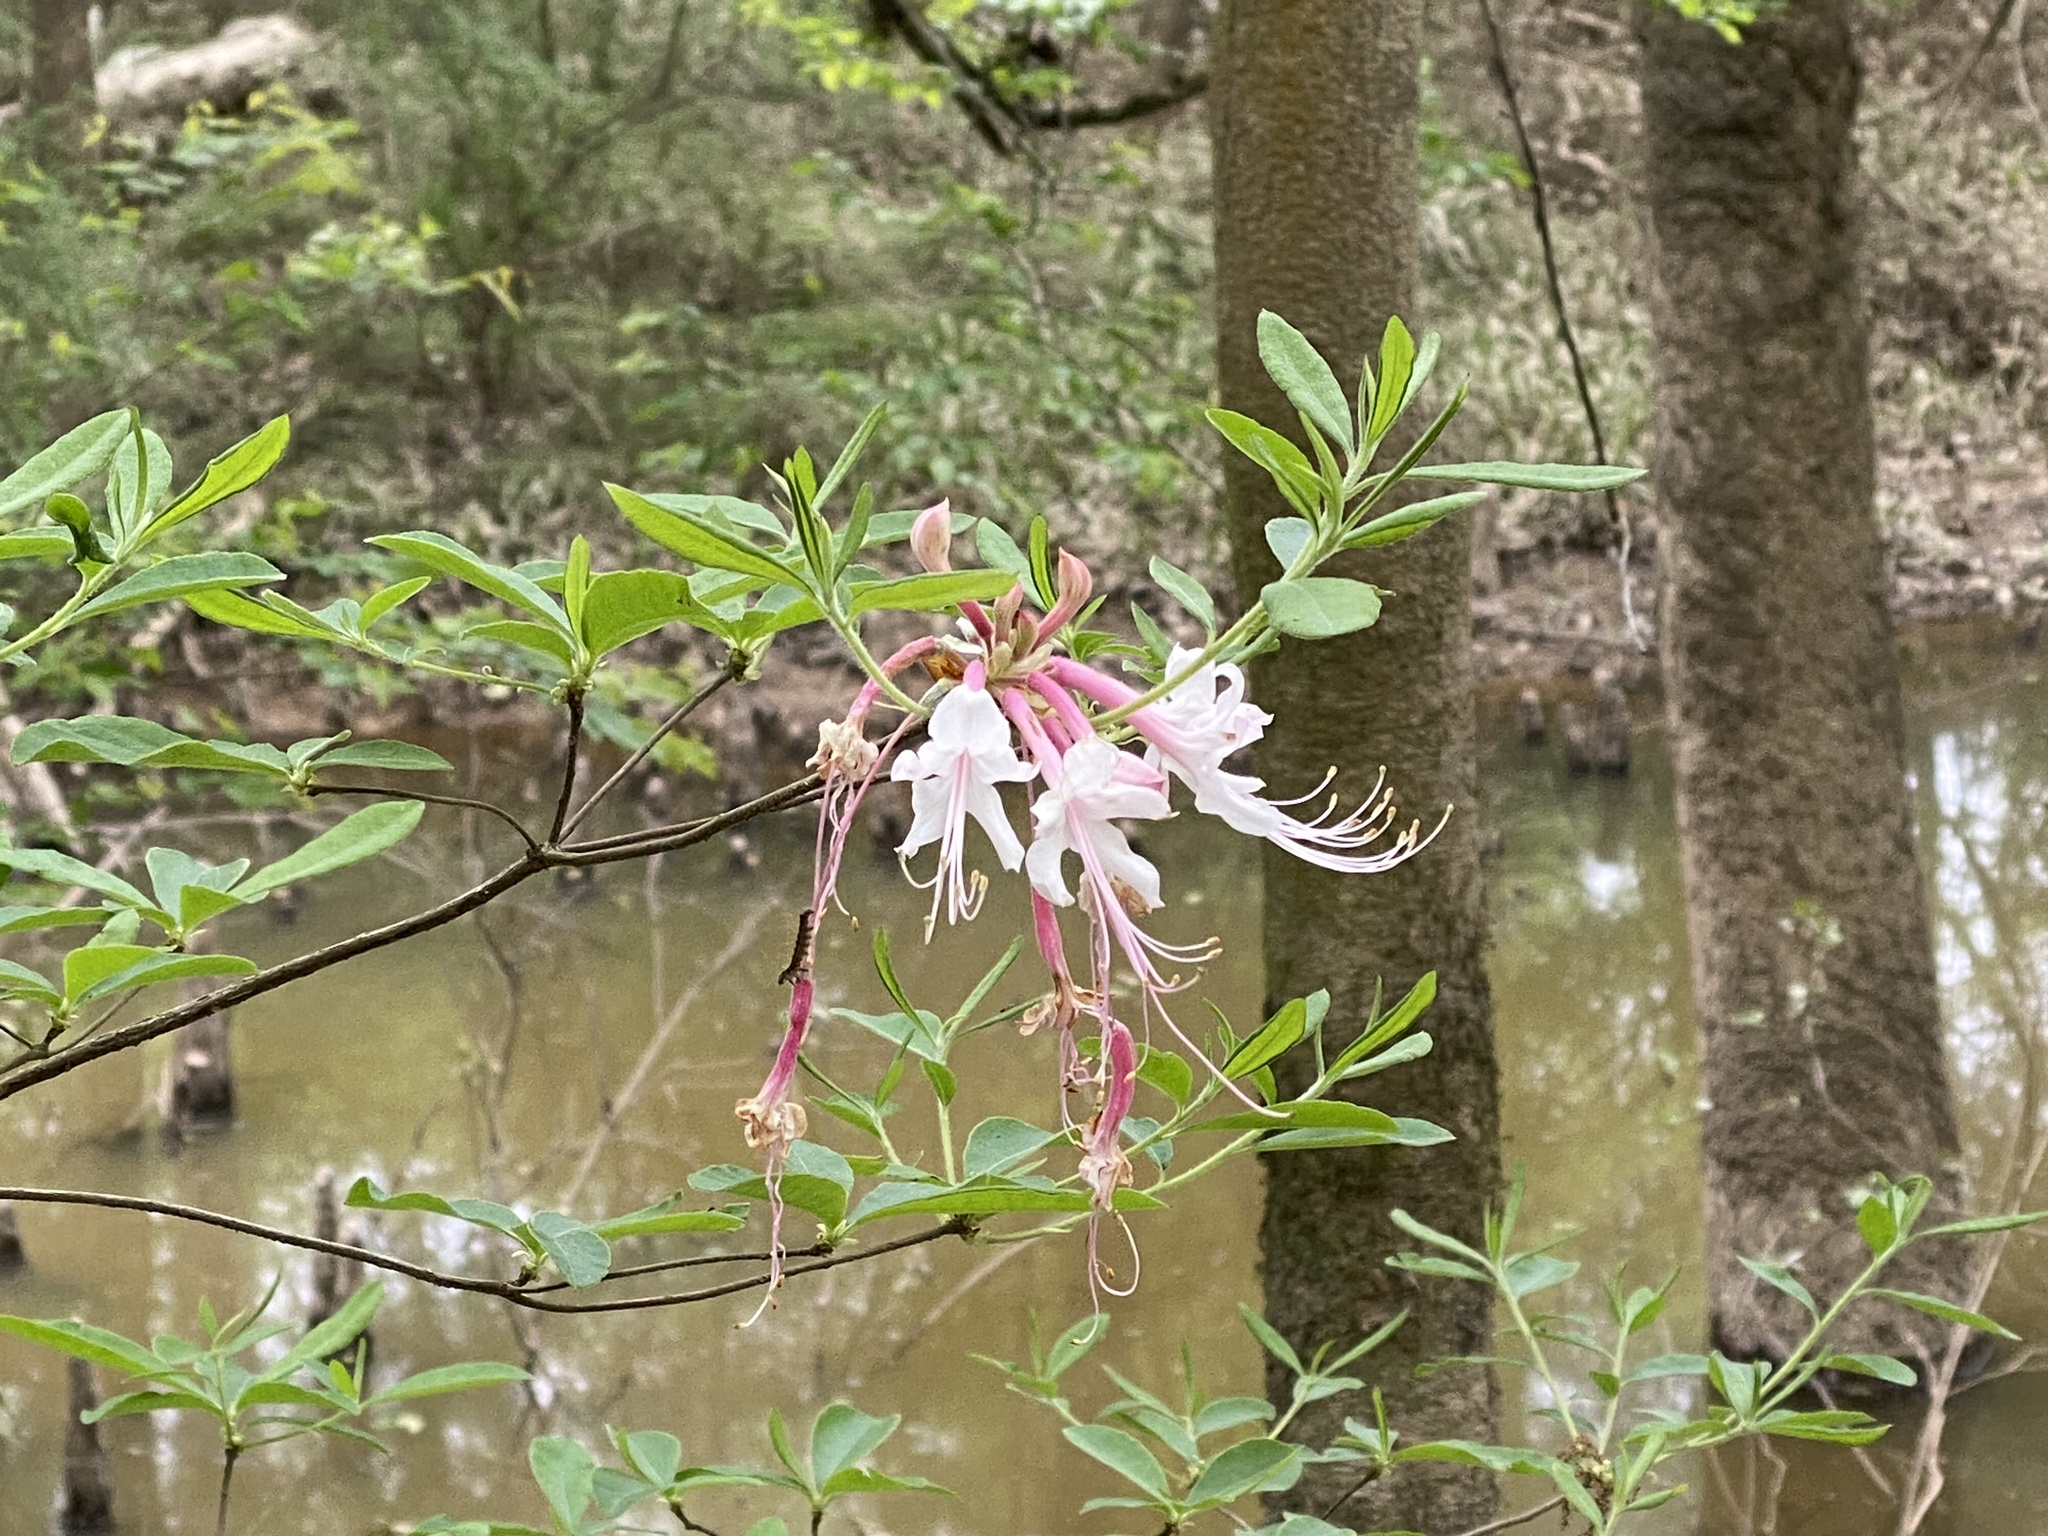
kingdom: Plantae
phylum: Tracheophyta
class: Magnoliopsida
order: Ericales
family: Ericaceae
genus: Rhododendron
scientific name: Rhododendron canescens
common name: Mountain azalea
